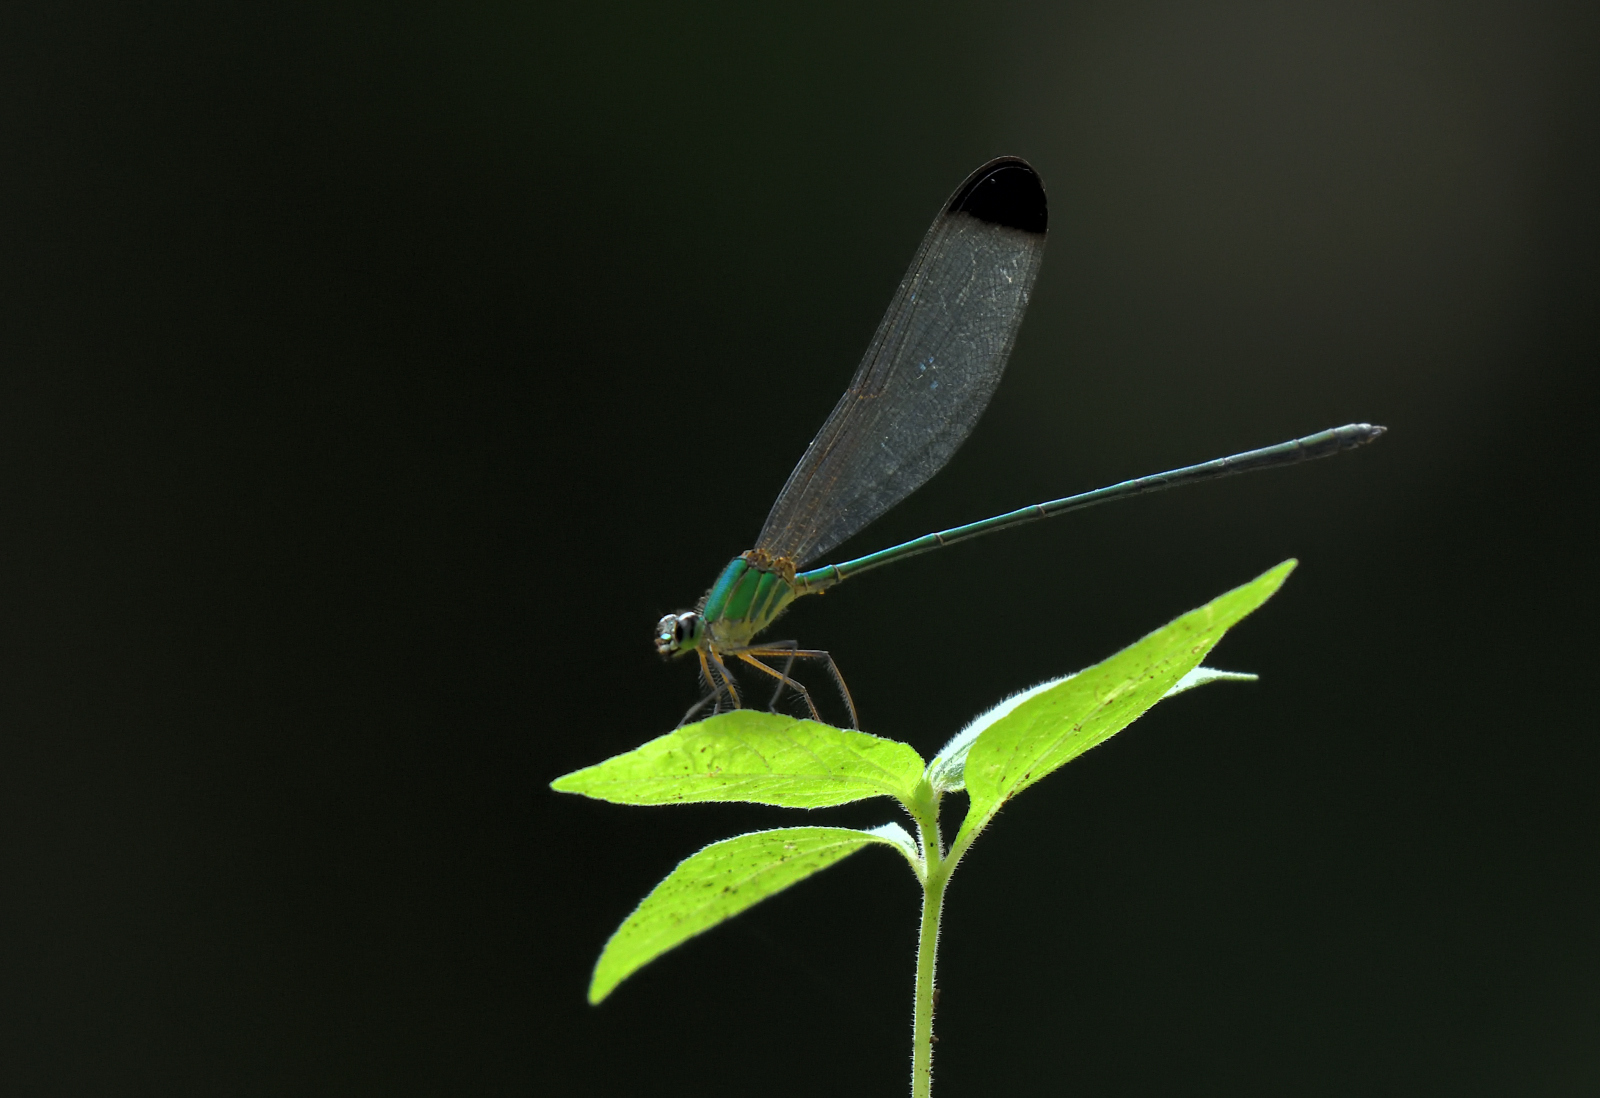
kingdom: Animalia
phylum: Arthropoda
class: Insecta
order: Odonata
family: Calopterygidae
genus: Vestalis
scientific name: Vestalis apicalis
